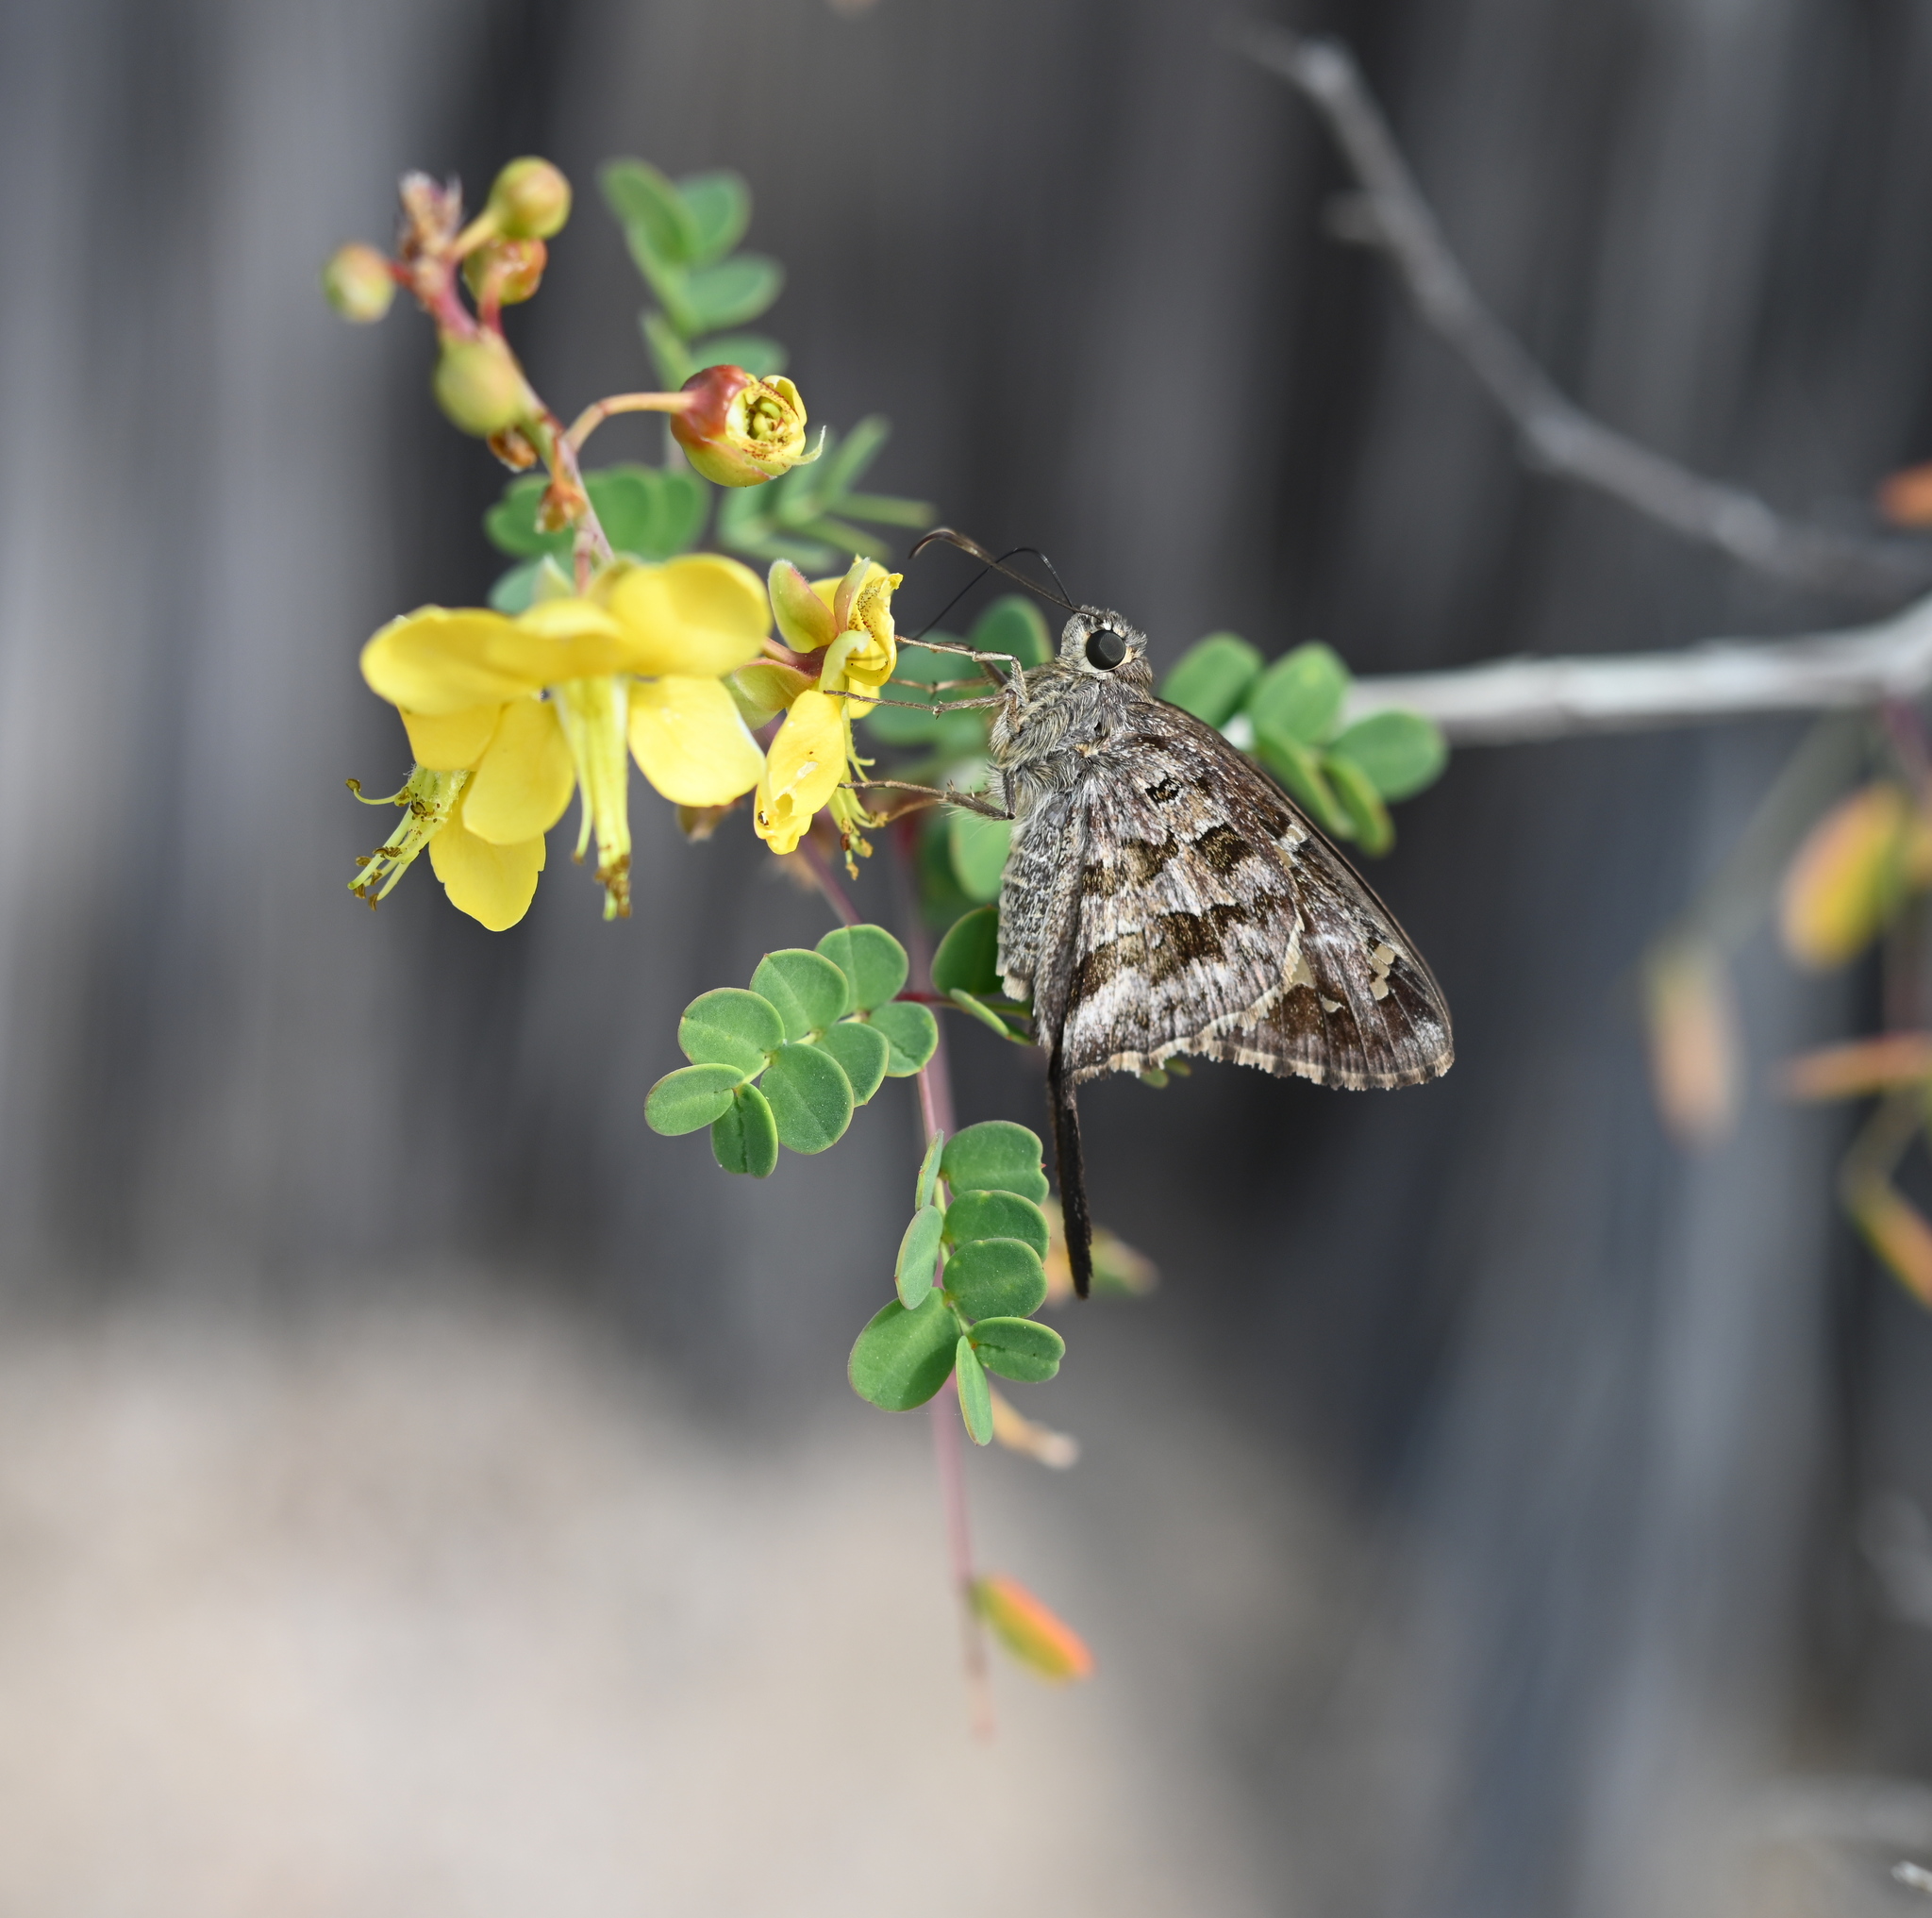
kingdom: Animalia
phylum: Arthropoda
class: Insecta
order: Lepidoptera
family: Hesperiidae
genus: Thorybes
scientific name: Thorybes
